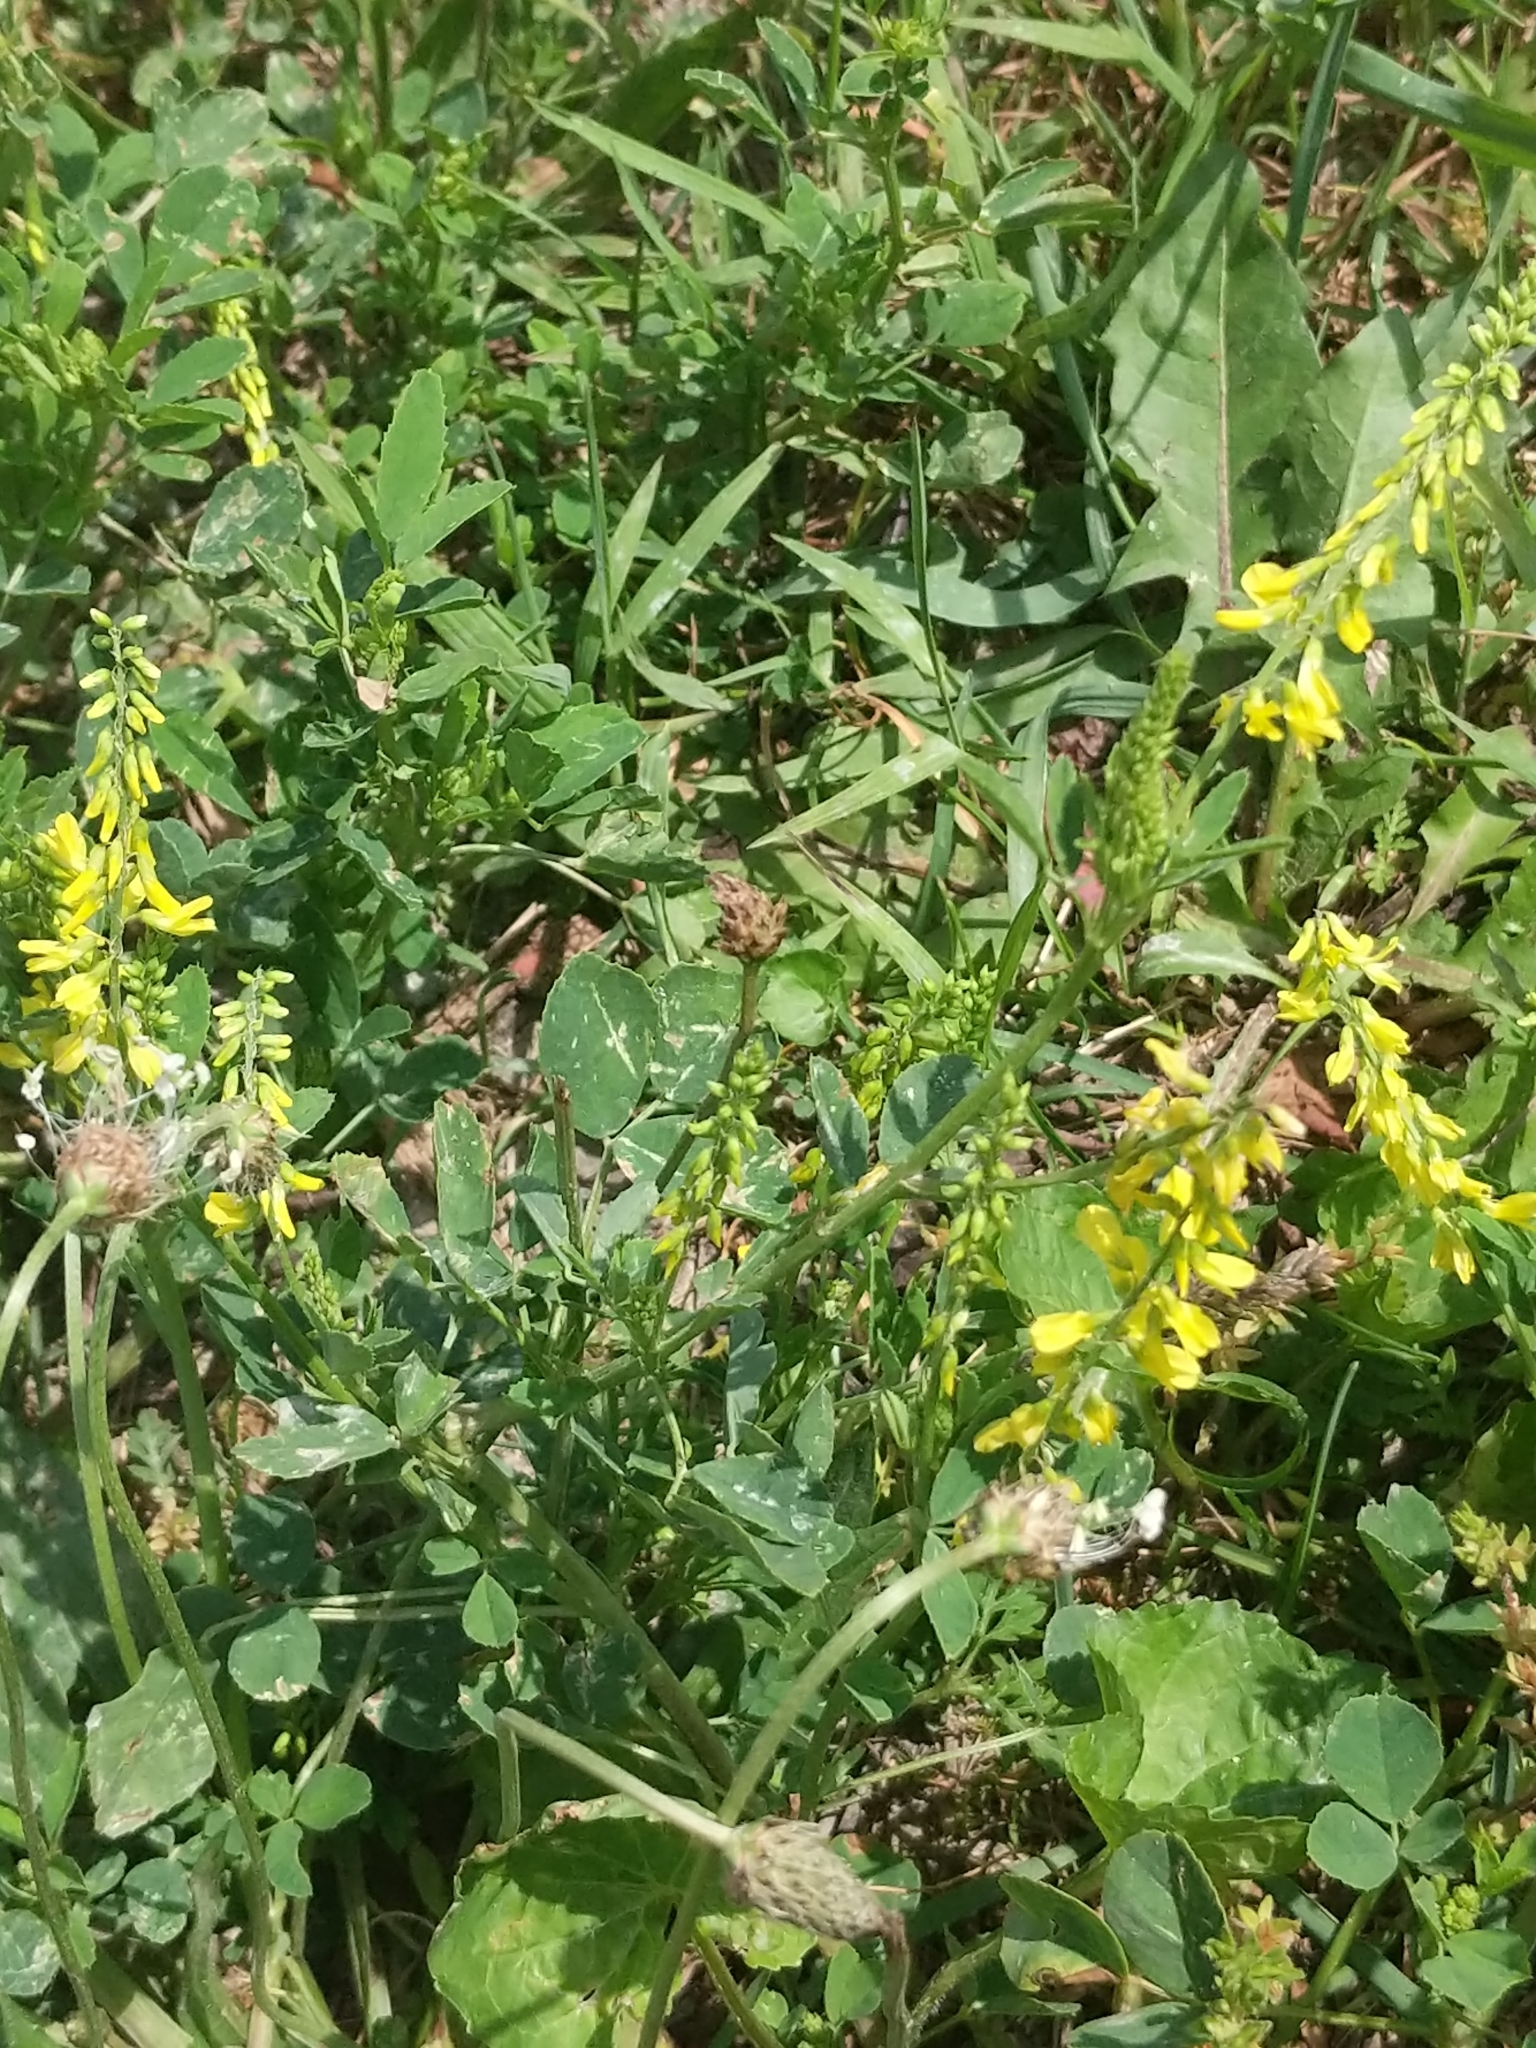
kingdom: Plantae
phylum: Tracheophyta
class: Magnoliopsida
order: Fabales
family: Fabaceae
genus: Melilotus
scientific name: Melilotus officinalis
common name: Sweetclover
